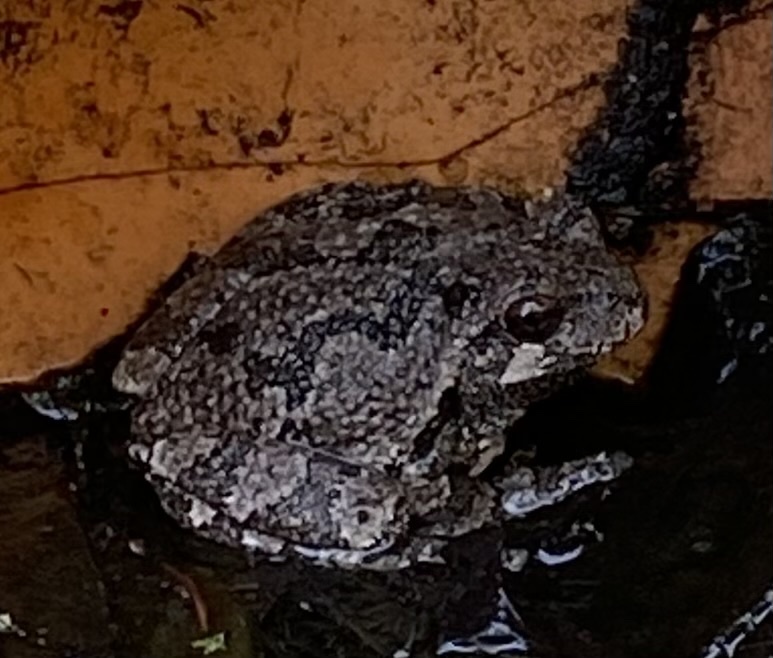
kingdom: Animalia
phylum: Chordata
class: Amphibia
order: Anura
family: Hylidae
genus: Dryophytes
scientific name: Dryophytes versicolor
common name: Gray treefrog
